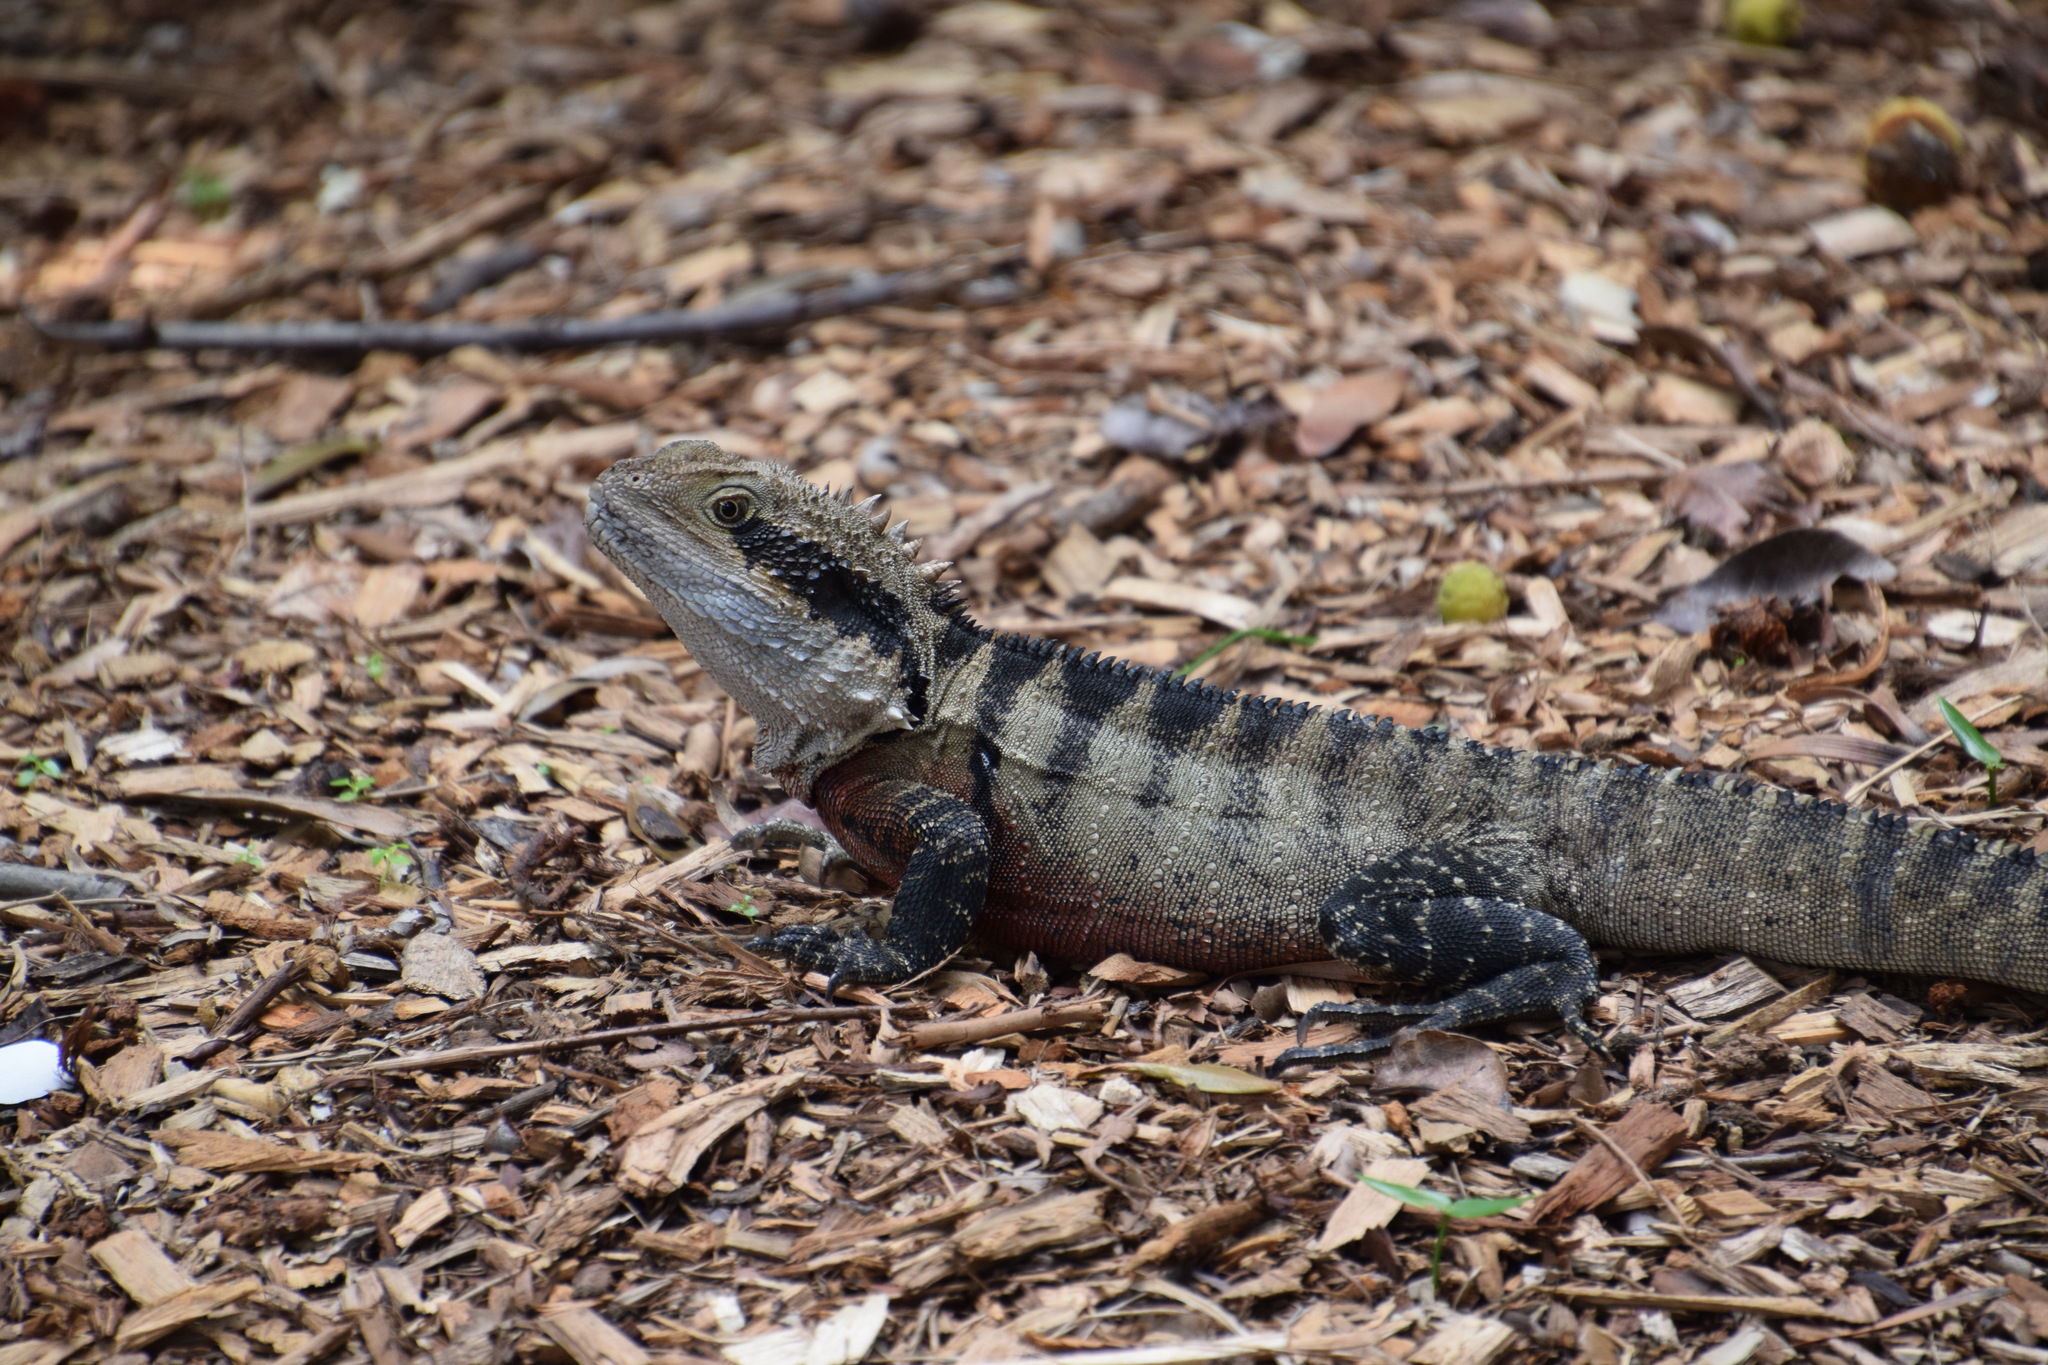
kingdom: Animalia
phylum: Chordata
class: Squamata
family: Agamidae
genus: Intellagama
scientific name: Intellagama lesueurii
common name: Eastern water dragon
